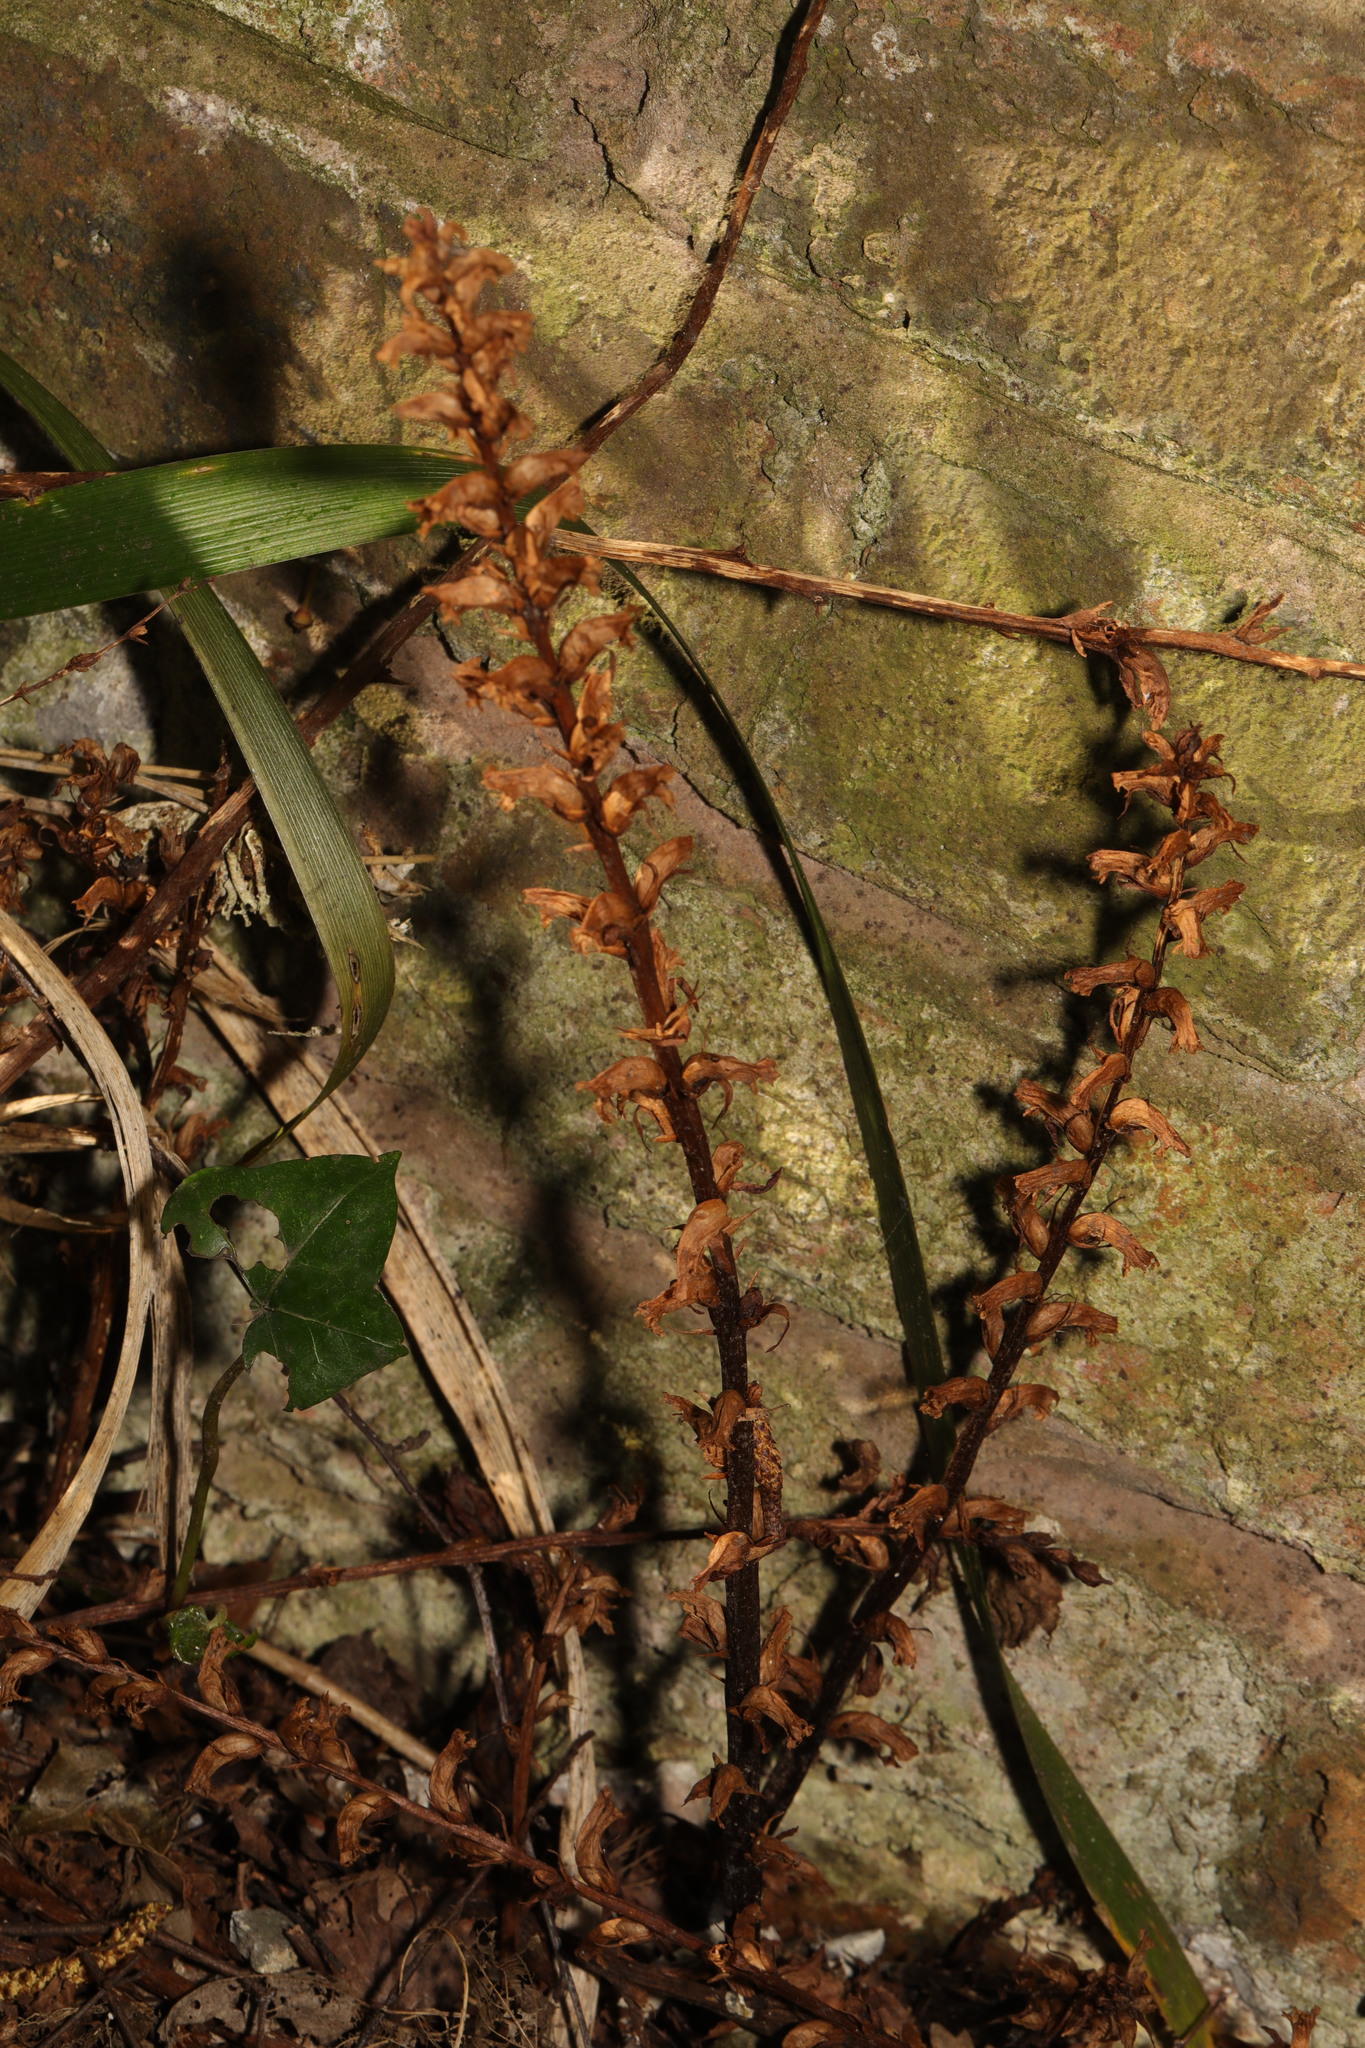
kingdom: Plantae
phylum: Tracheophyta
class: Magnoliopsida
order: Lamiales
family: Orobanchaceae
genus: Orobanche
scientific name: Orobanche hederae
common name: Ivy broomrape
